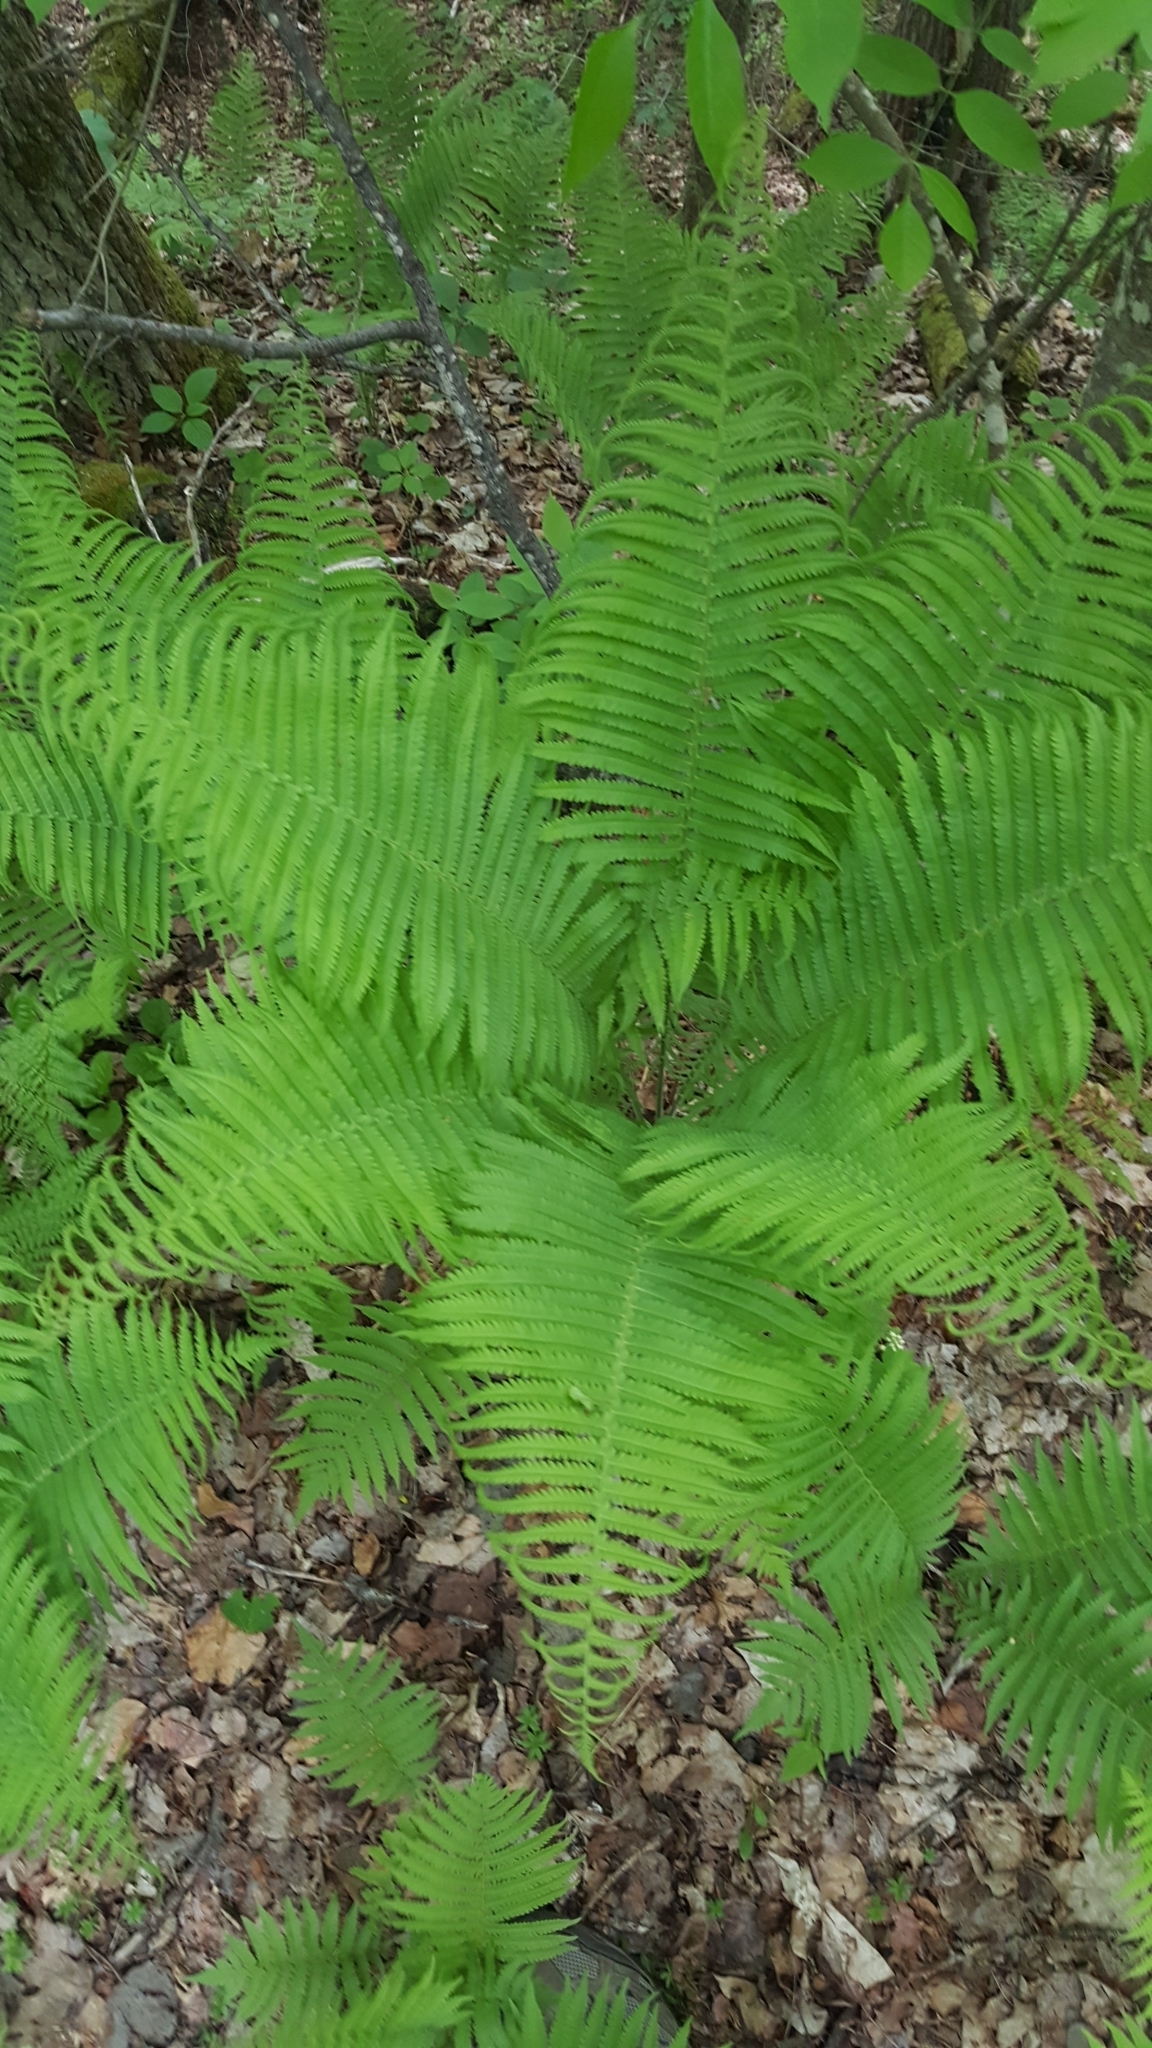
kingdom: Plantae
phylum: Tracheophyta
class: Polypodiopsida
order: Polypodiales
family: Onocleaceae
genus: Matteuccia
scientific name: Matteuccia struthiopteris
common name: Ostrich fern
